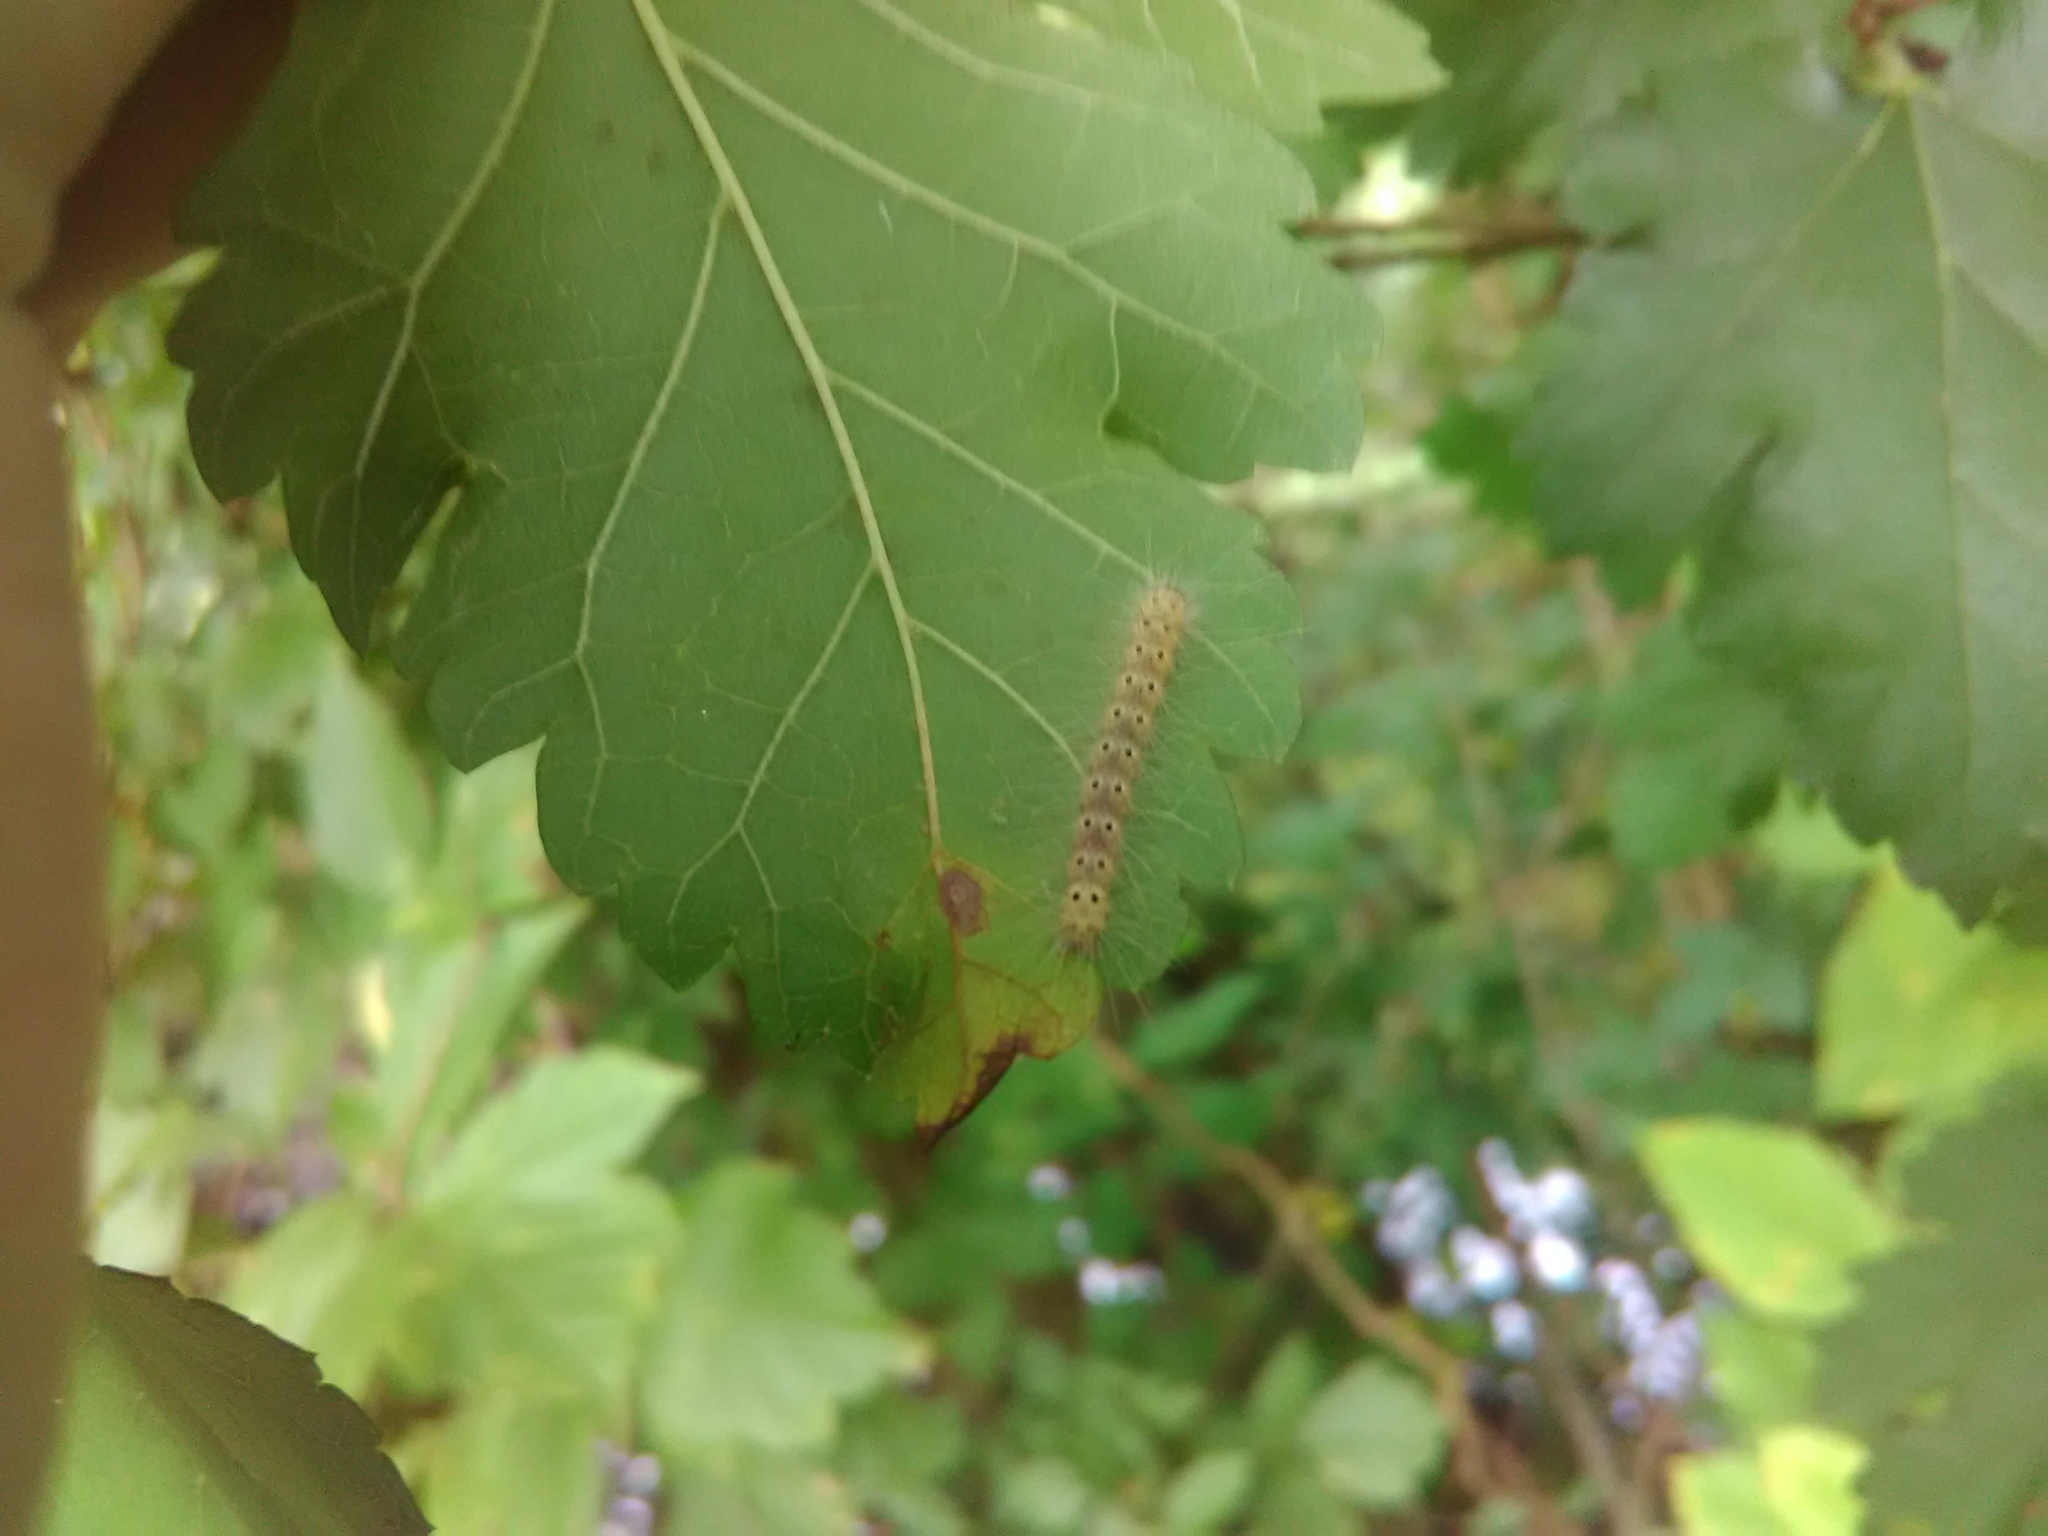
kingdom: Animalia
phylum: Arthropoda
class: Insecta
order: Lepidoptera
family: Erebidae
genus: Hyphantria
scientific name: Hyphantria cunea
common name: American white moth
